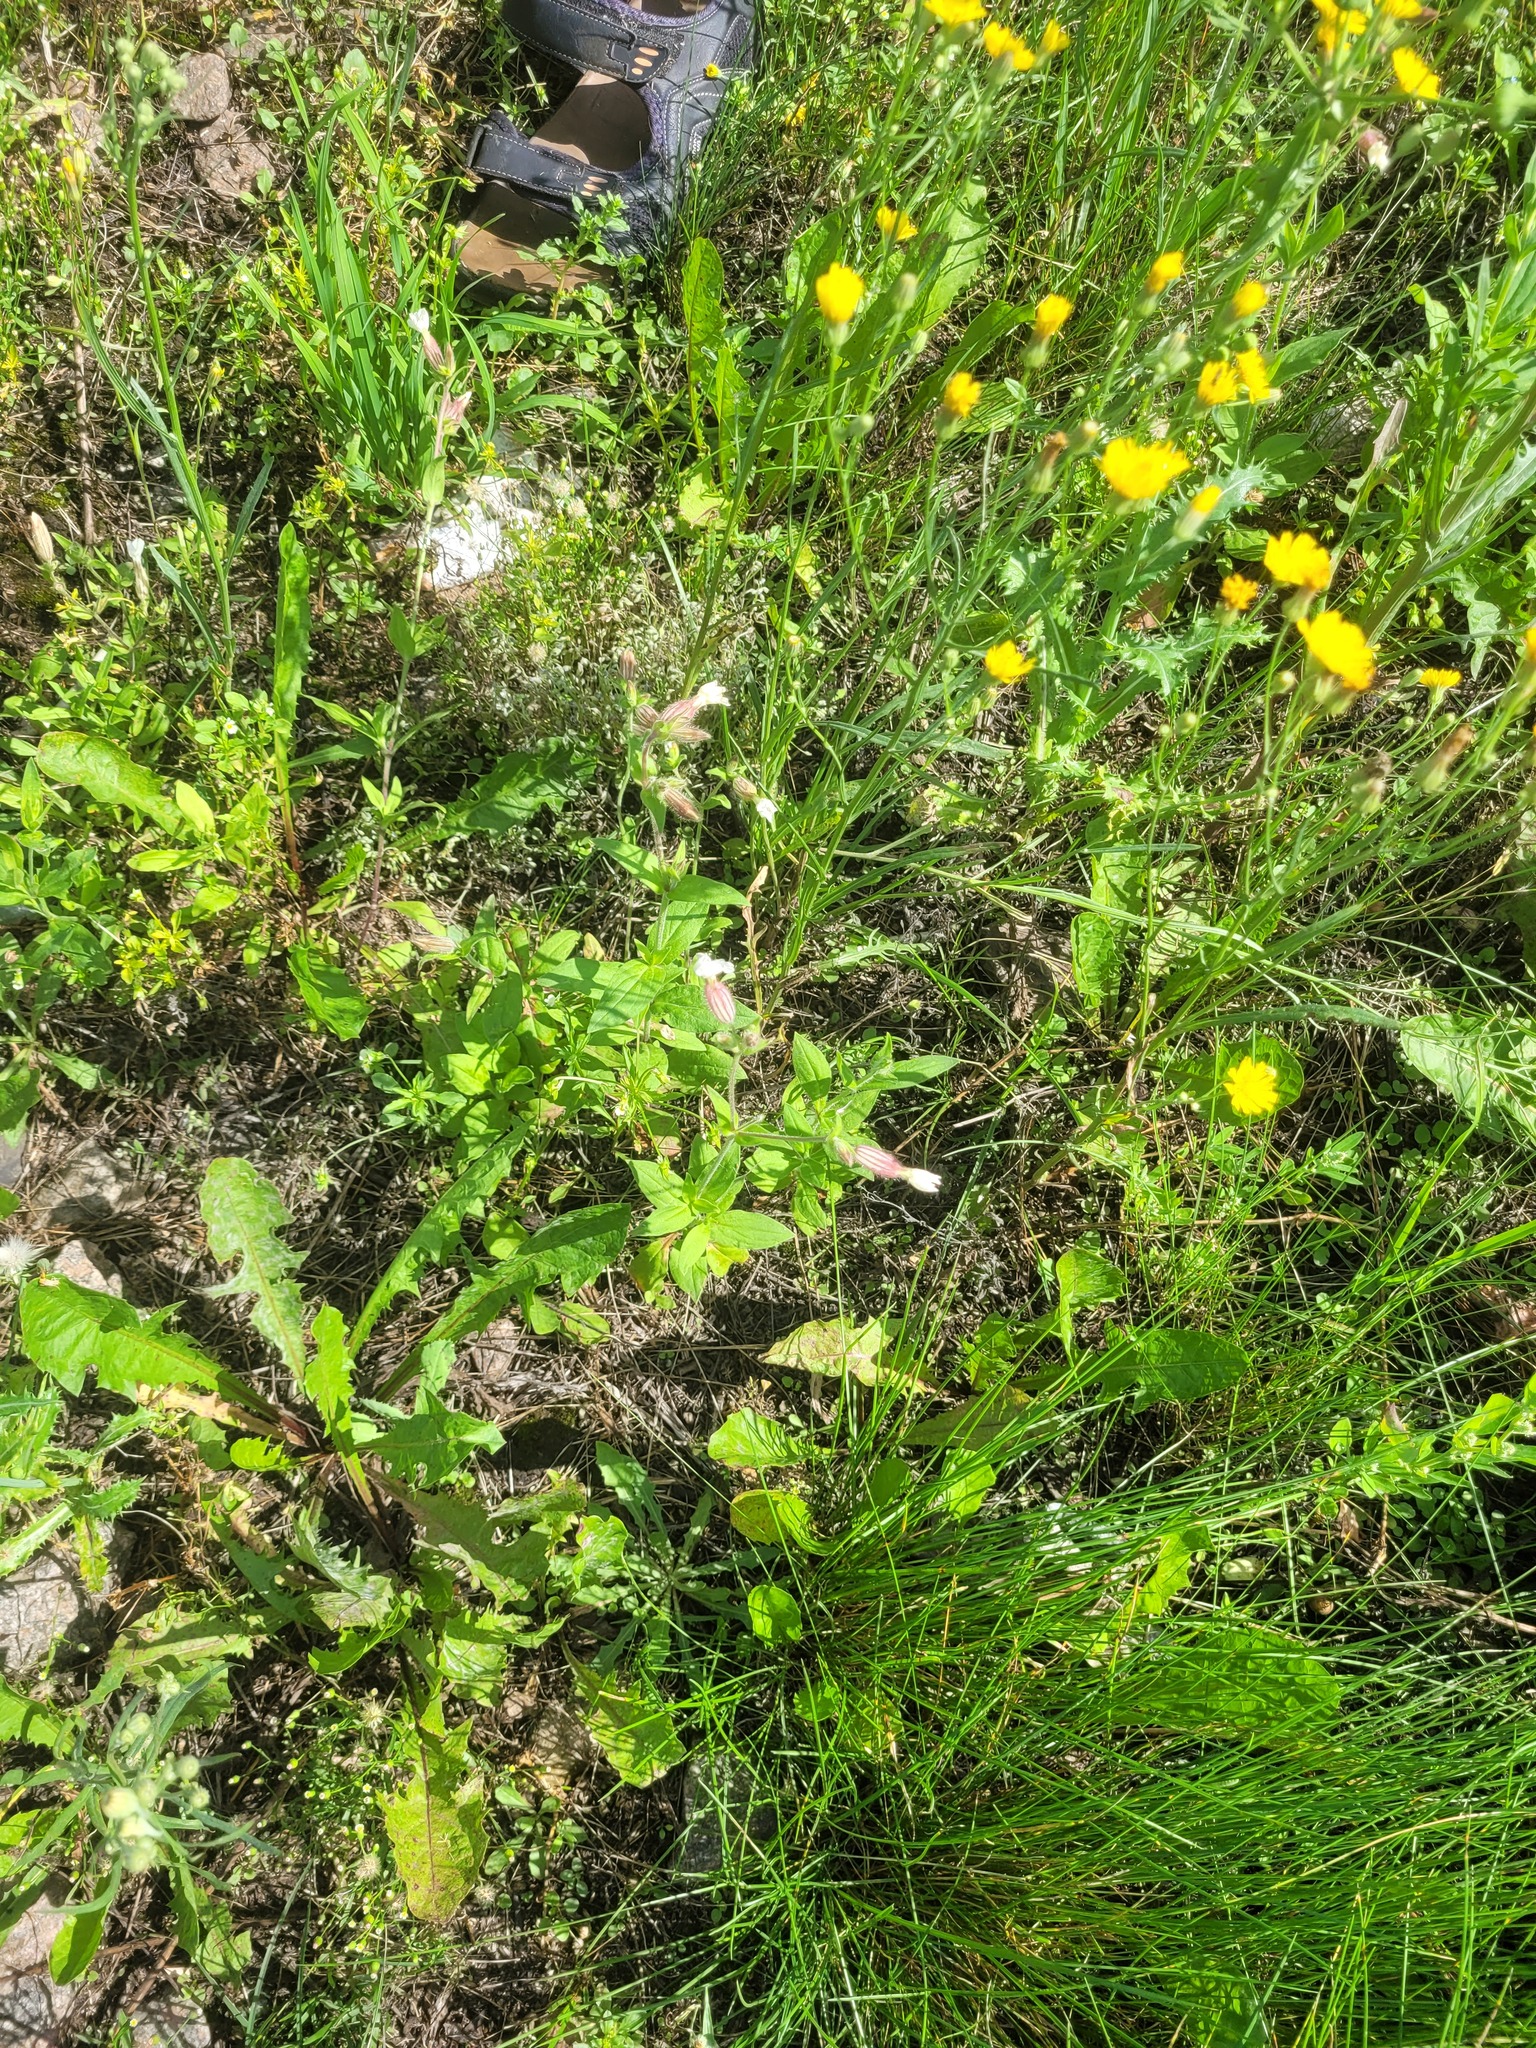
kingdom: Plantae
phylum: Tracheophyta
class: Magnoliopsida
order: Caryophyllales
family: Caryophyllaceae
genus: Silene
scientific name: Silene latifolia
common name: White campion
